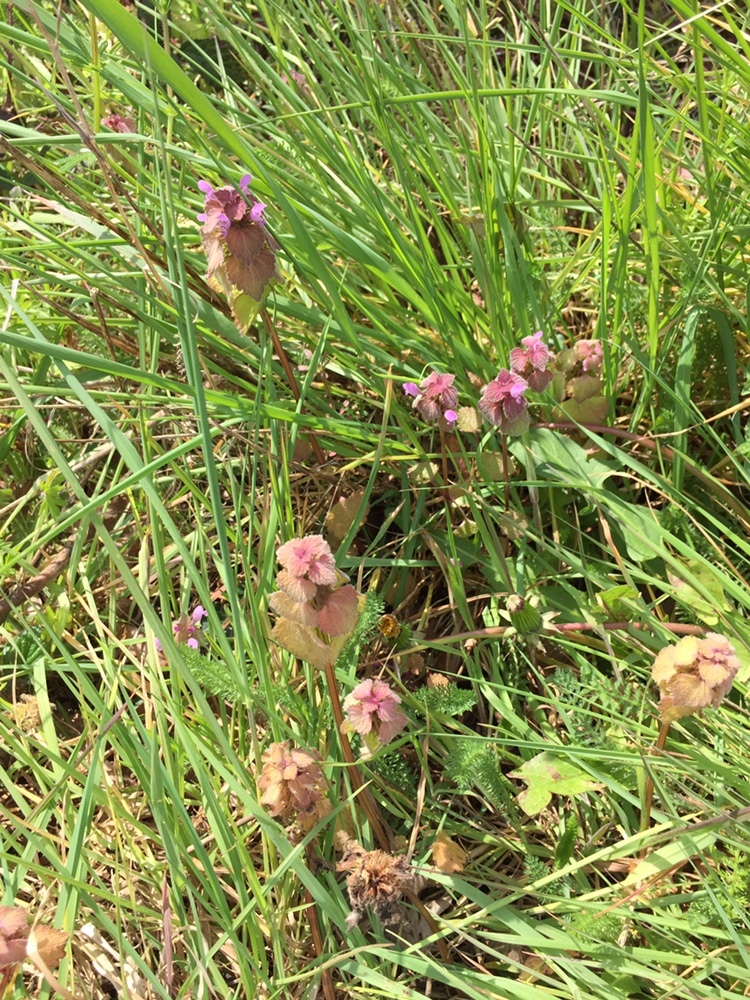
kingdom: Plantae
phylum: Tracheophyta
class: Magnoliopsida
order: Lamiales
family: Lamiaceae
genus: Lamium
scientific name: Lamium purpureum
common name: Red dead-nettle
